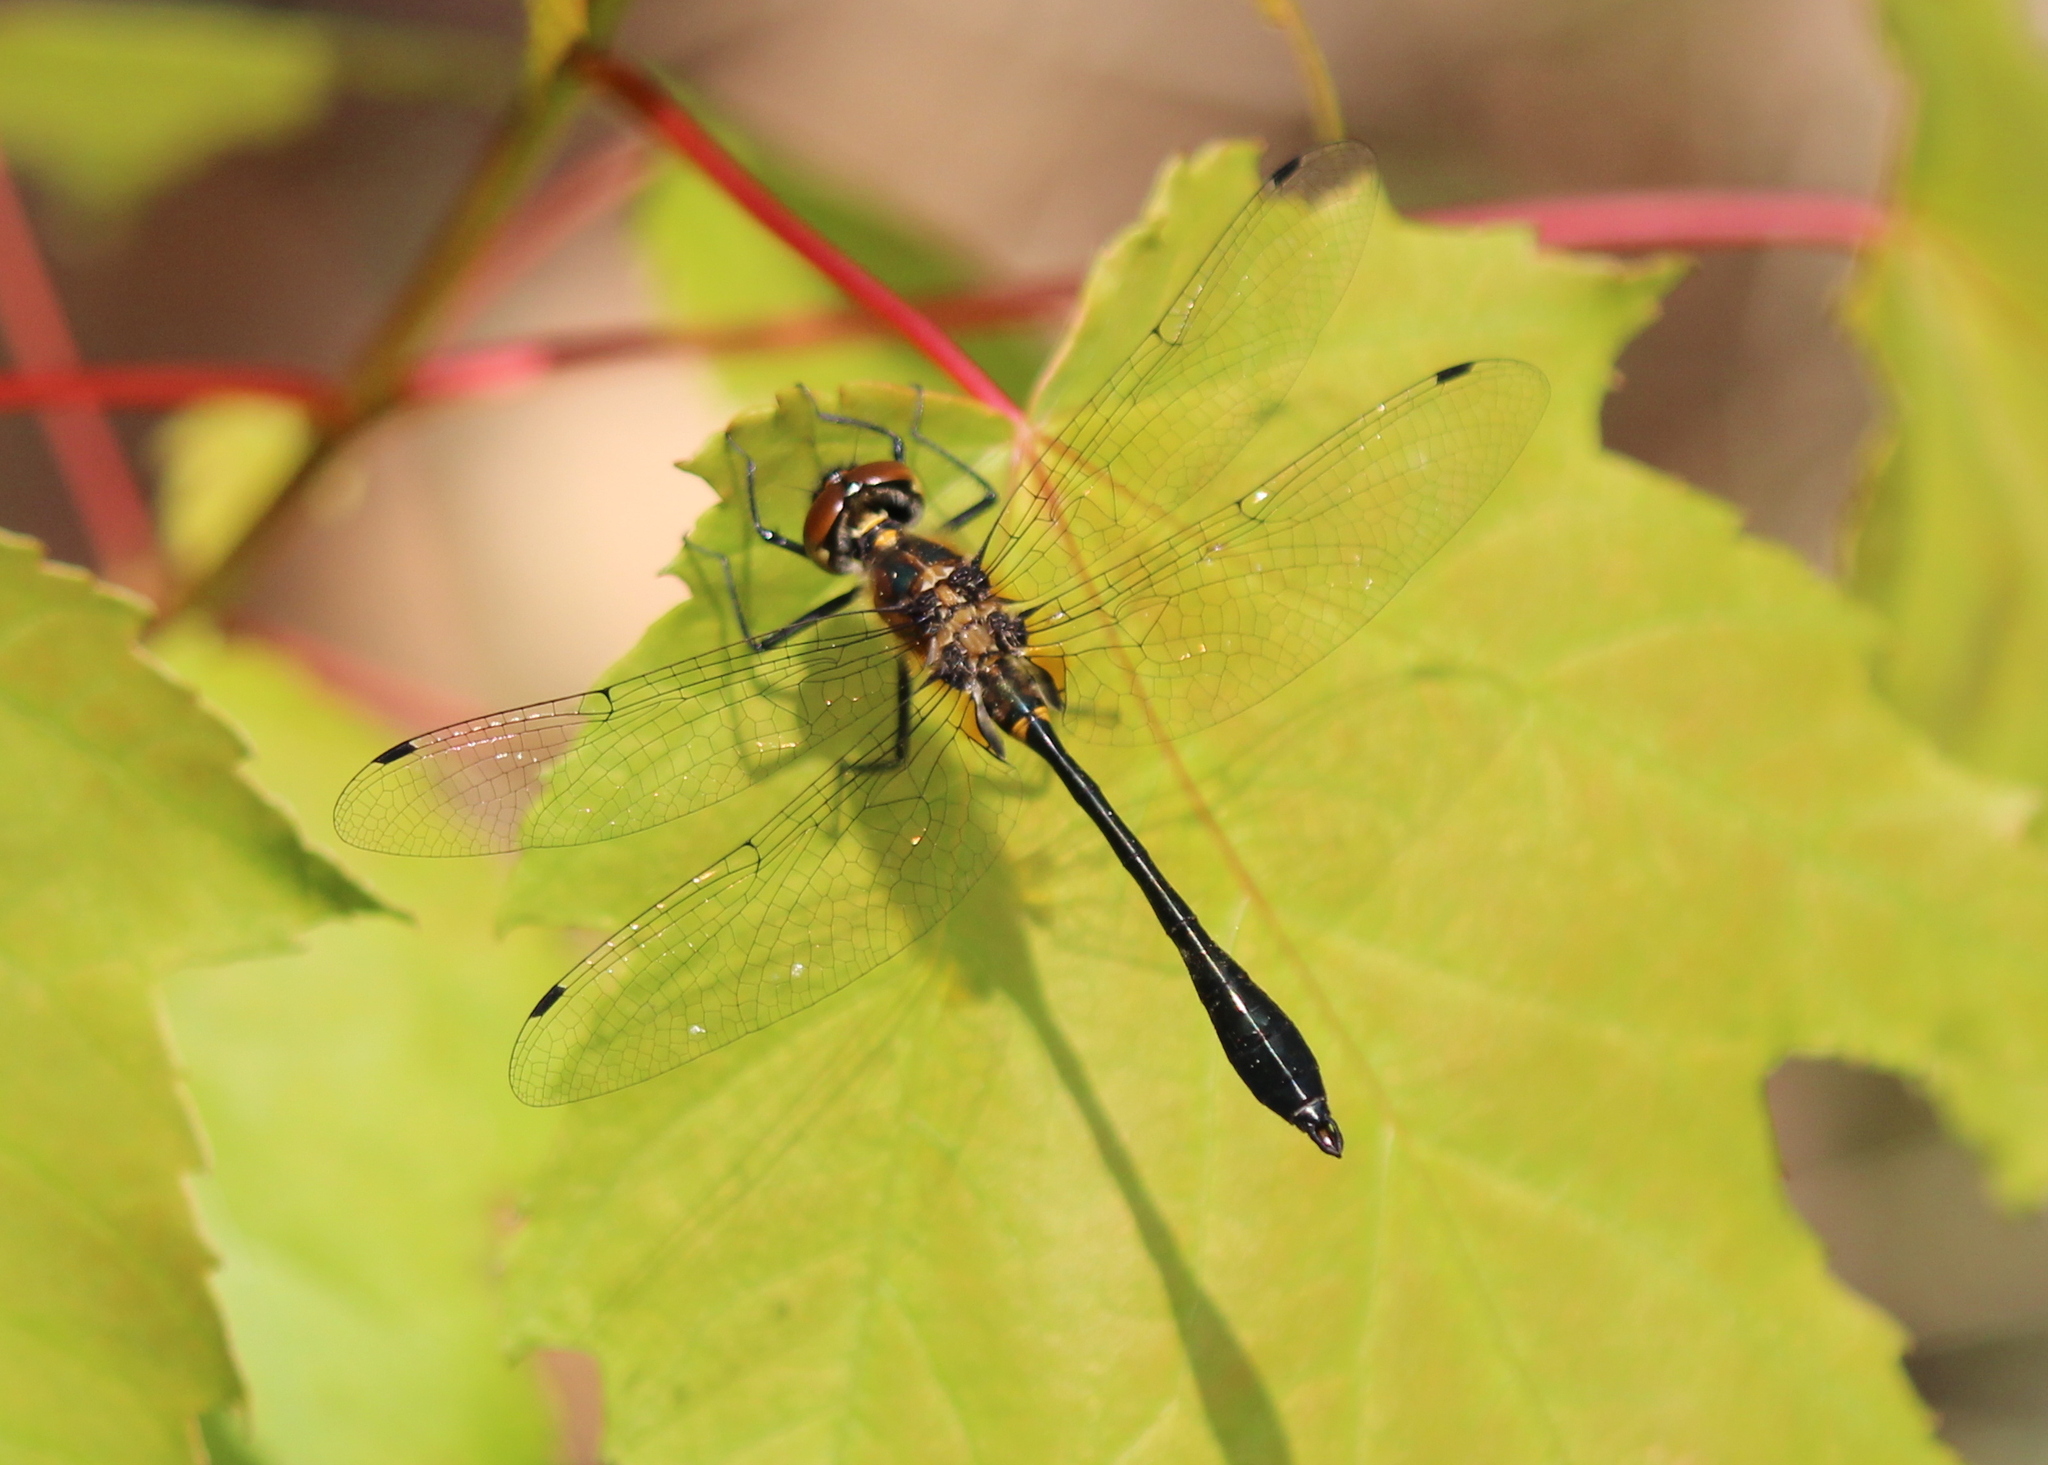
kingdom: Animalia
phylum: Arthropoda
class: Insecta
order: Odonata
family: Corduliidae
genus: Dorocordulia
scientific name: Dorocordulia libera
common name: Racket-tailed emerald
